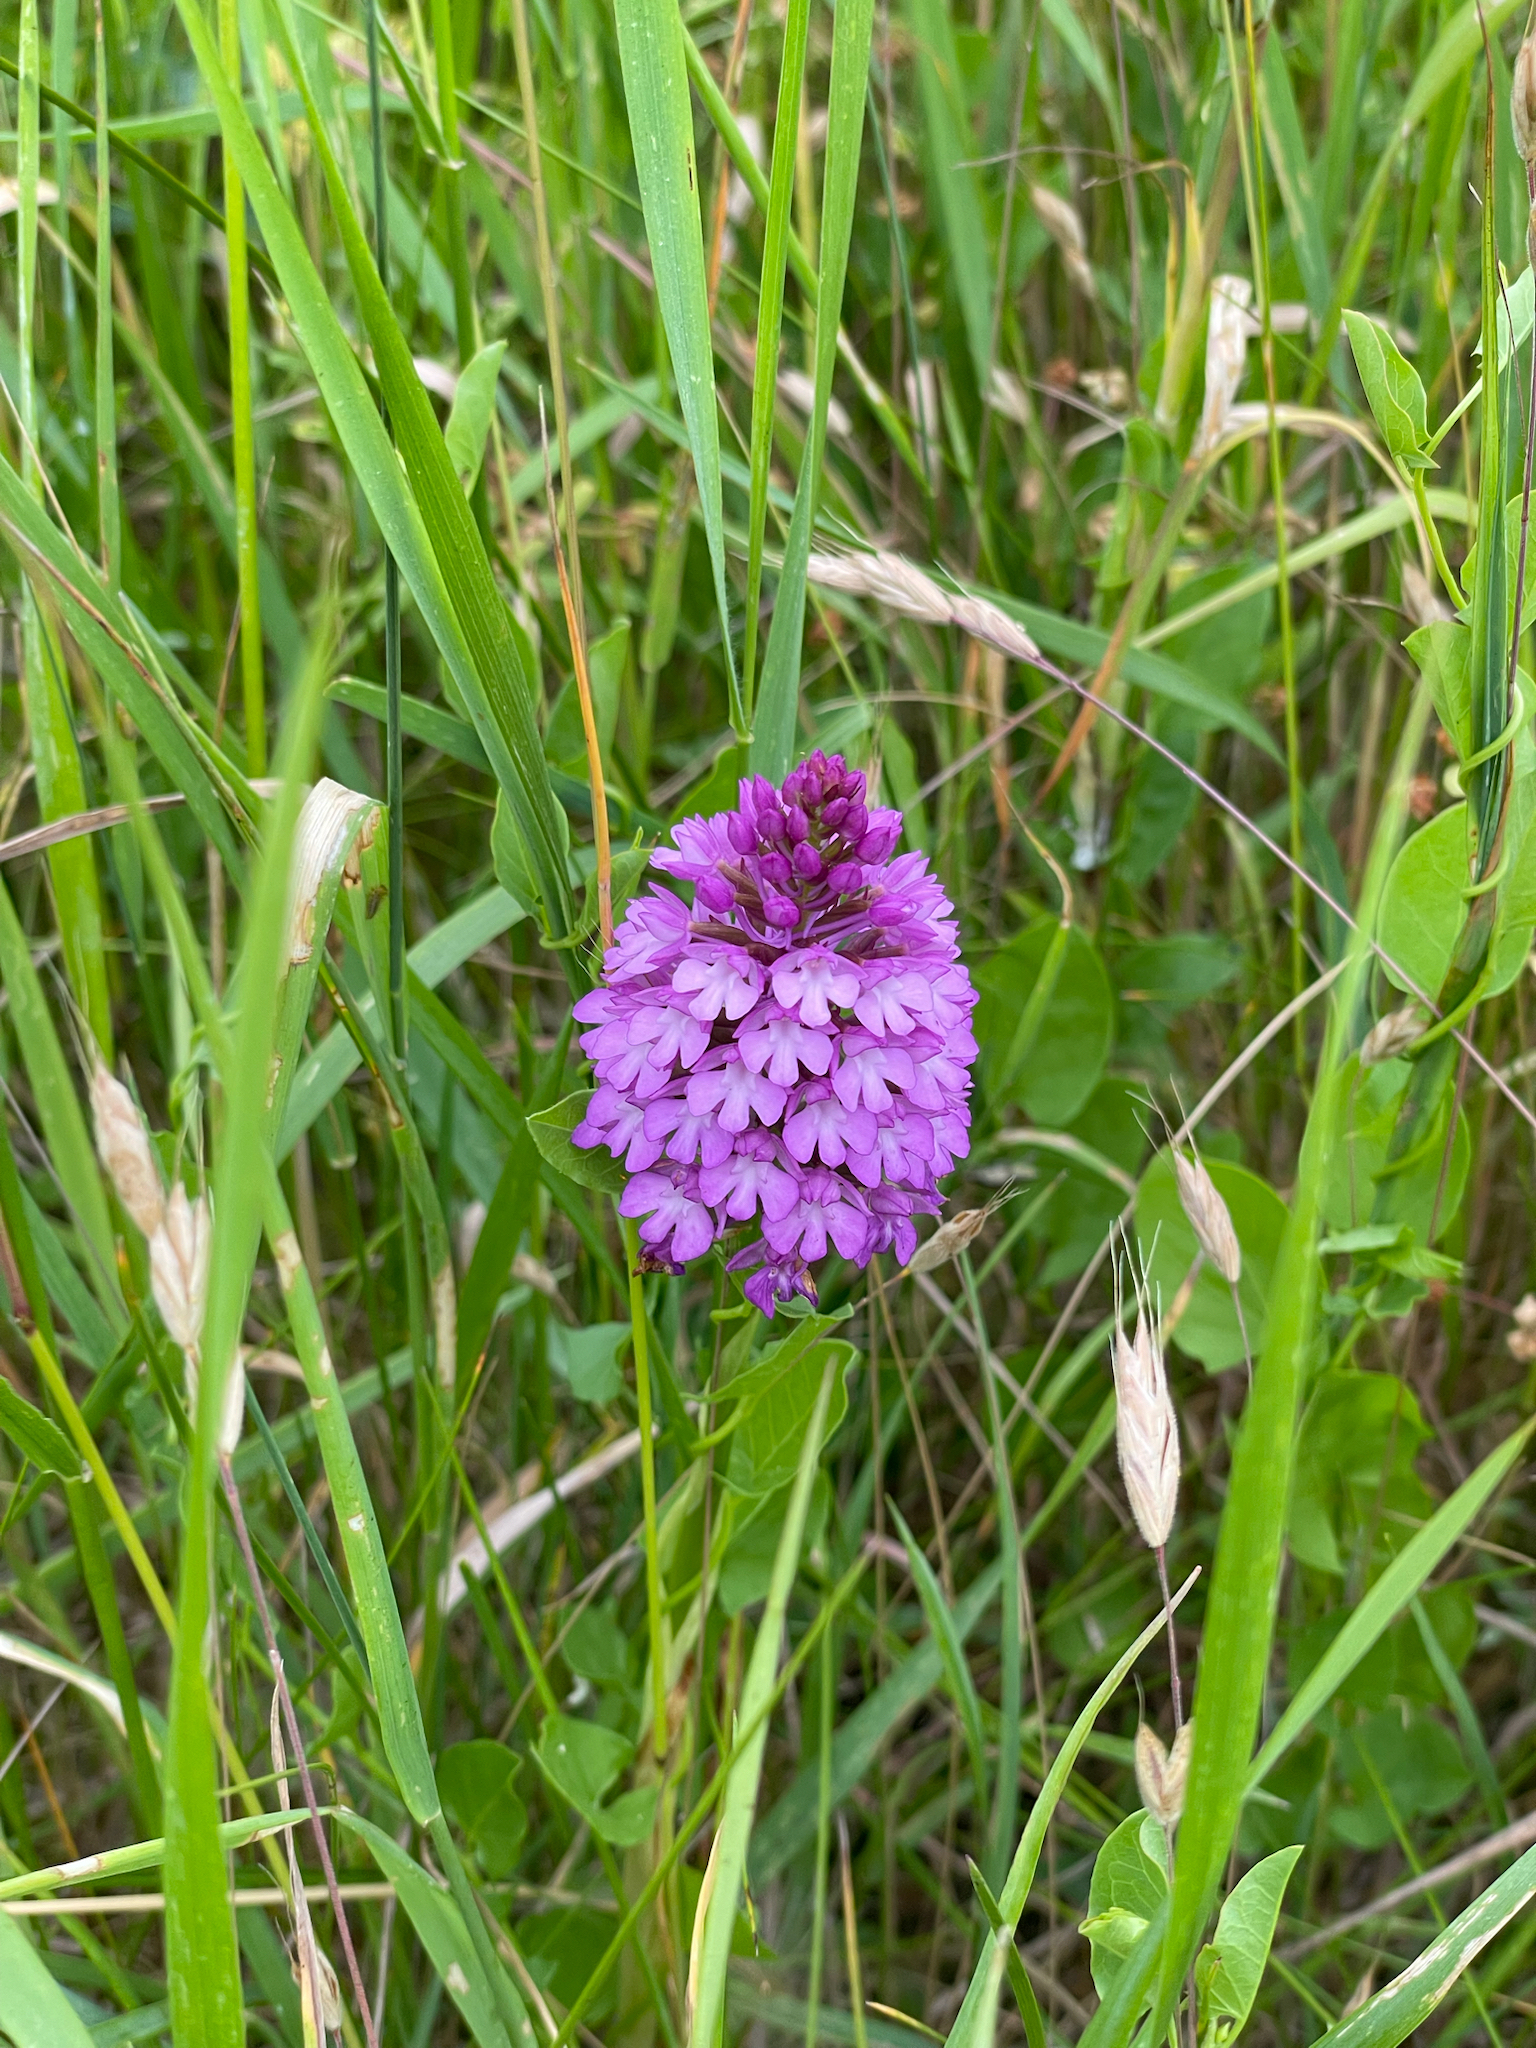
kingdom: Plantae
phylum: Tracheophyta
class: Liliopsida
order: Asparagales
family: Orchidaceae
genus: Anacamptis
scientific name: Anacamptis pyramidalis
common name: Pyramidal orchid
